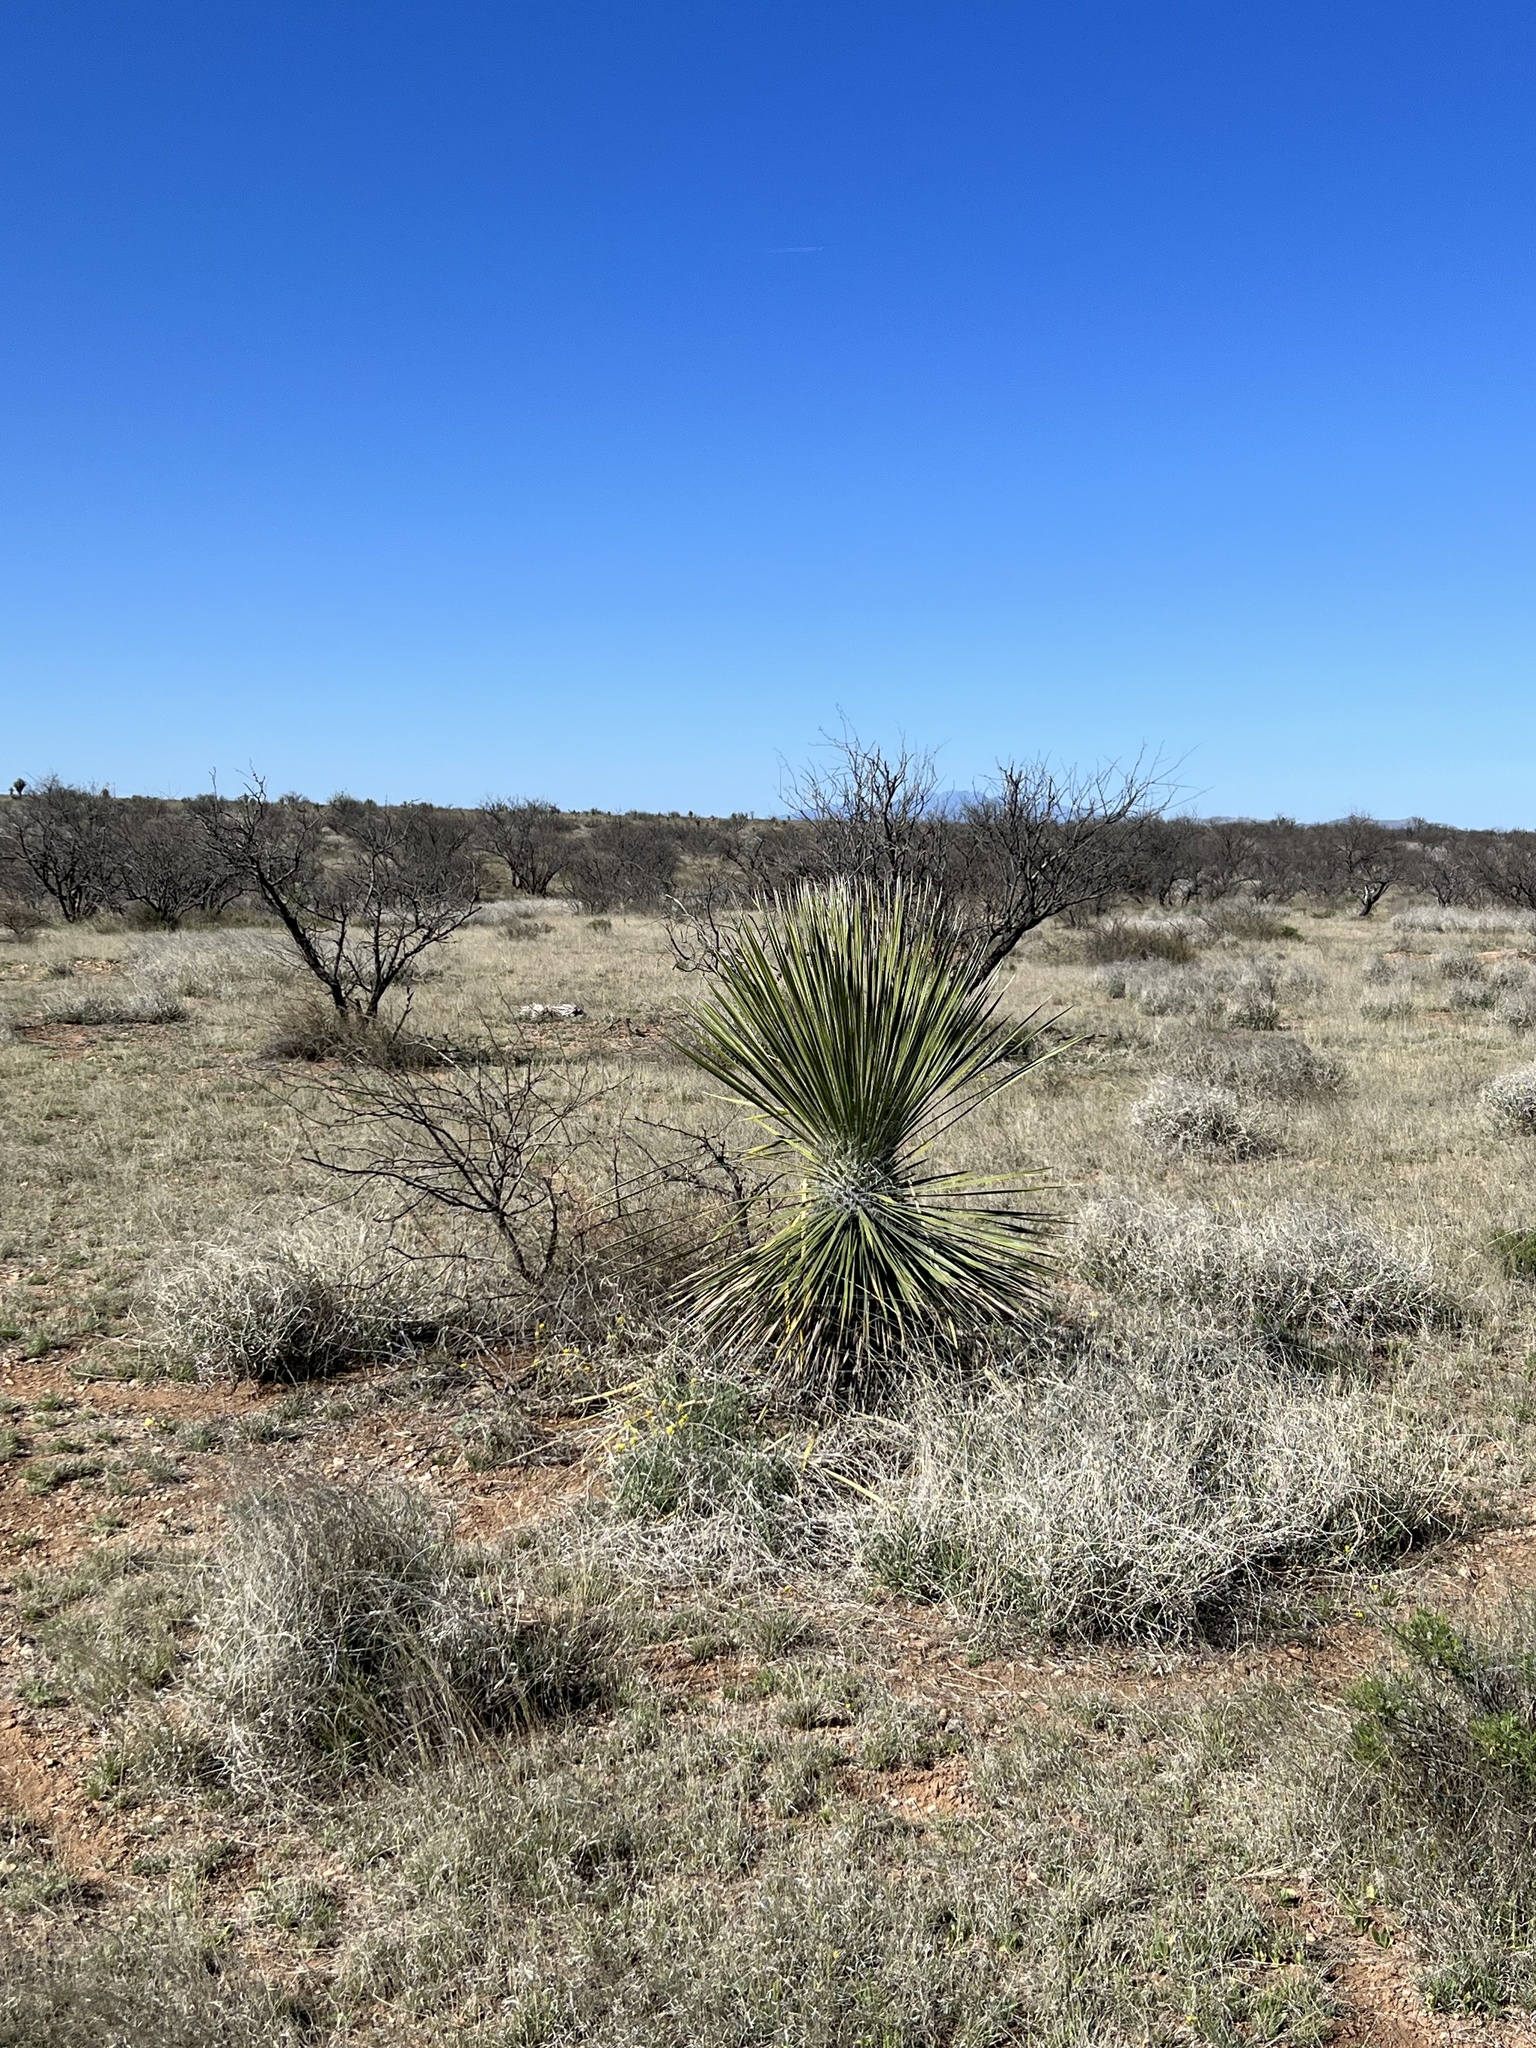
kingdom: Plantae
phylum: Tracheophyta
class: Liliopsida
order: Asparagales
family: Asparagaceae
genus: Yucca
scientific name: Yucca elata
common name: Palmella
